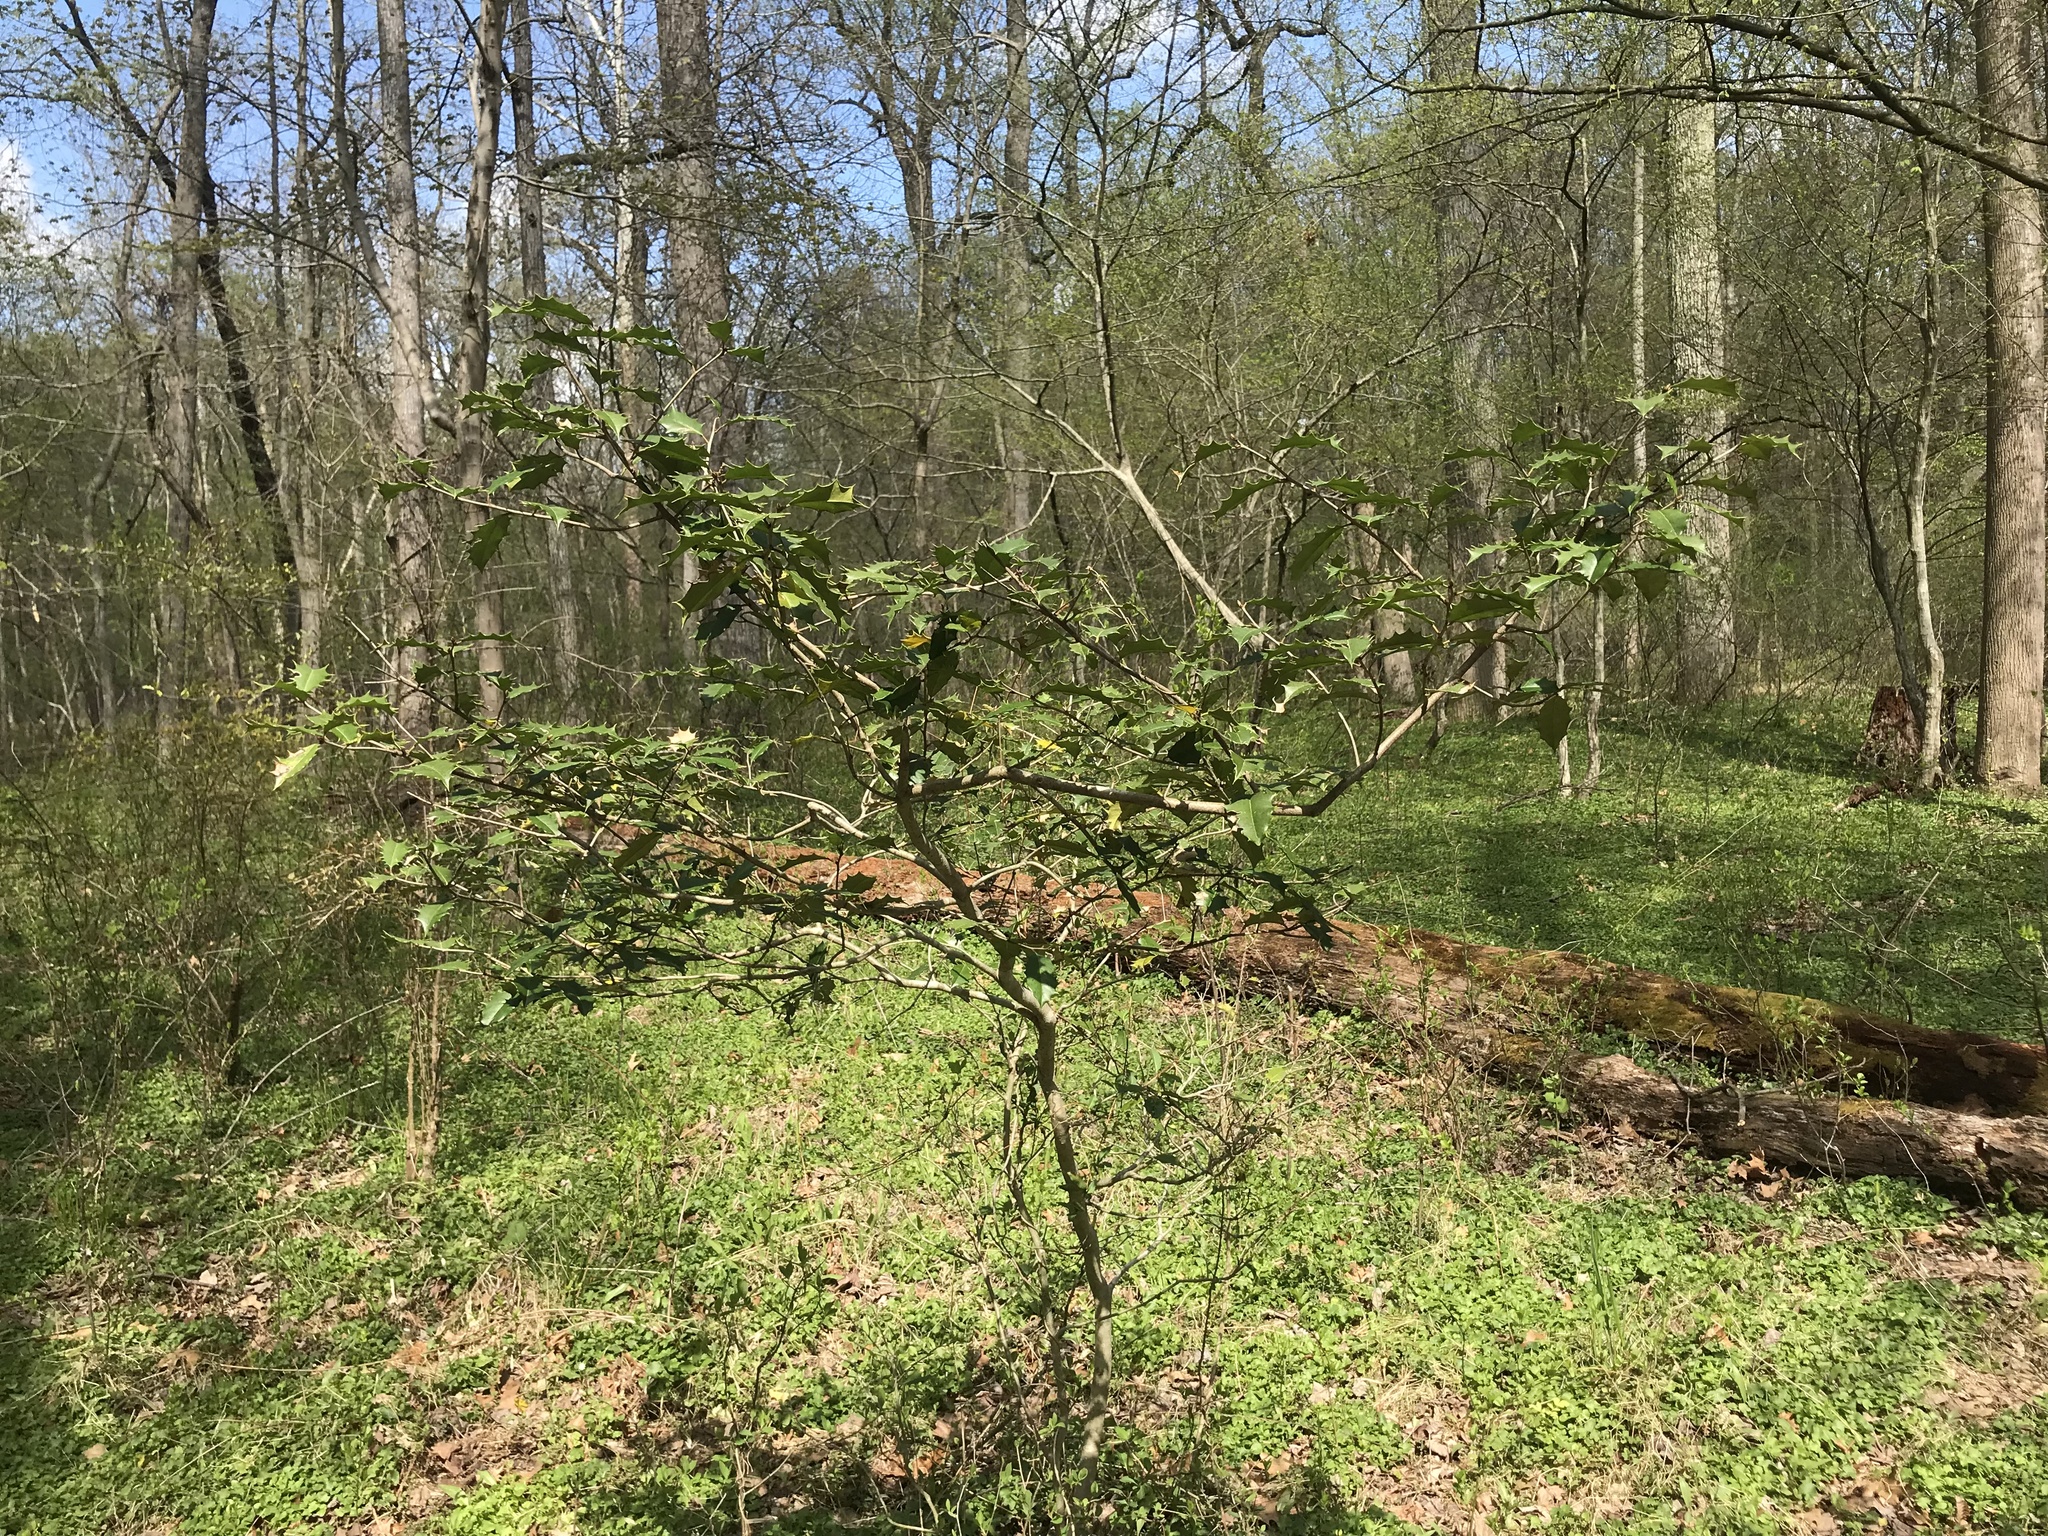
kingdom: Plantae
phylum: Tracheophyta
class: Magnoliopsida
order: Aquifoliales
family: Aquifoliaceae
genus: Ilex
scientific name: Ilex opaca
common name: American holly
